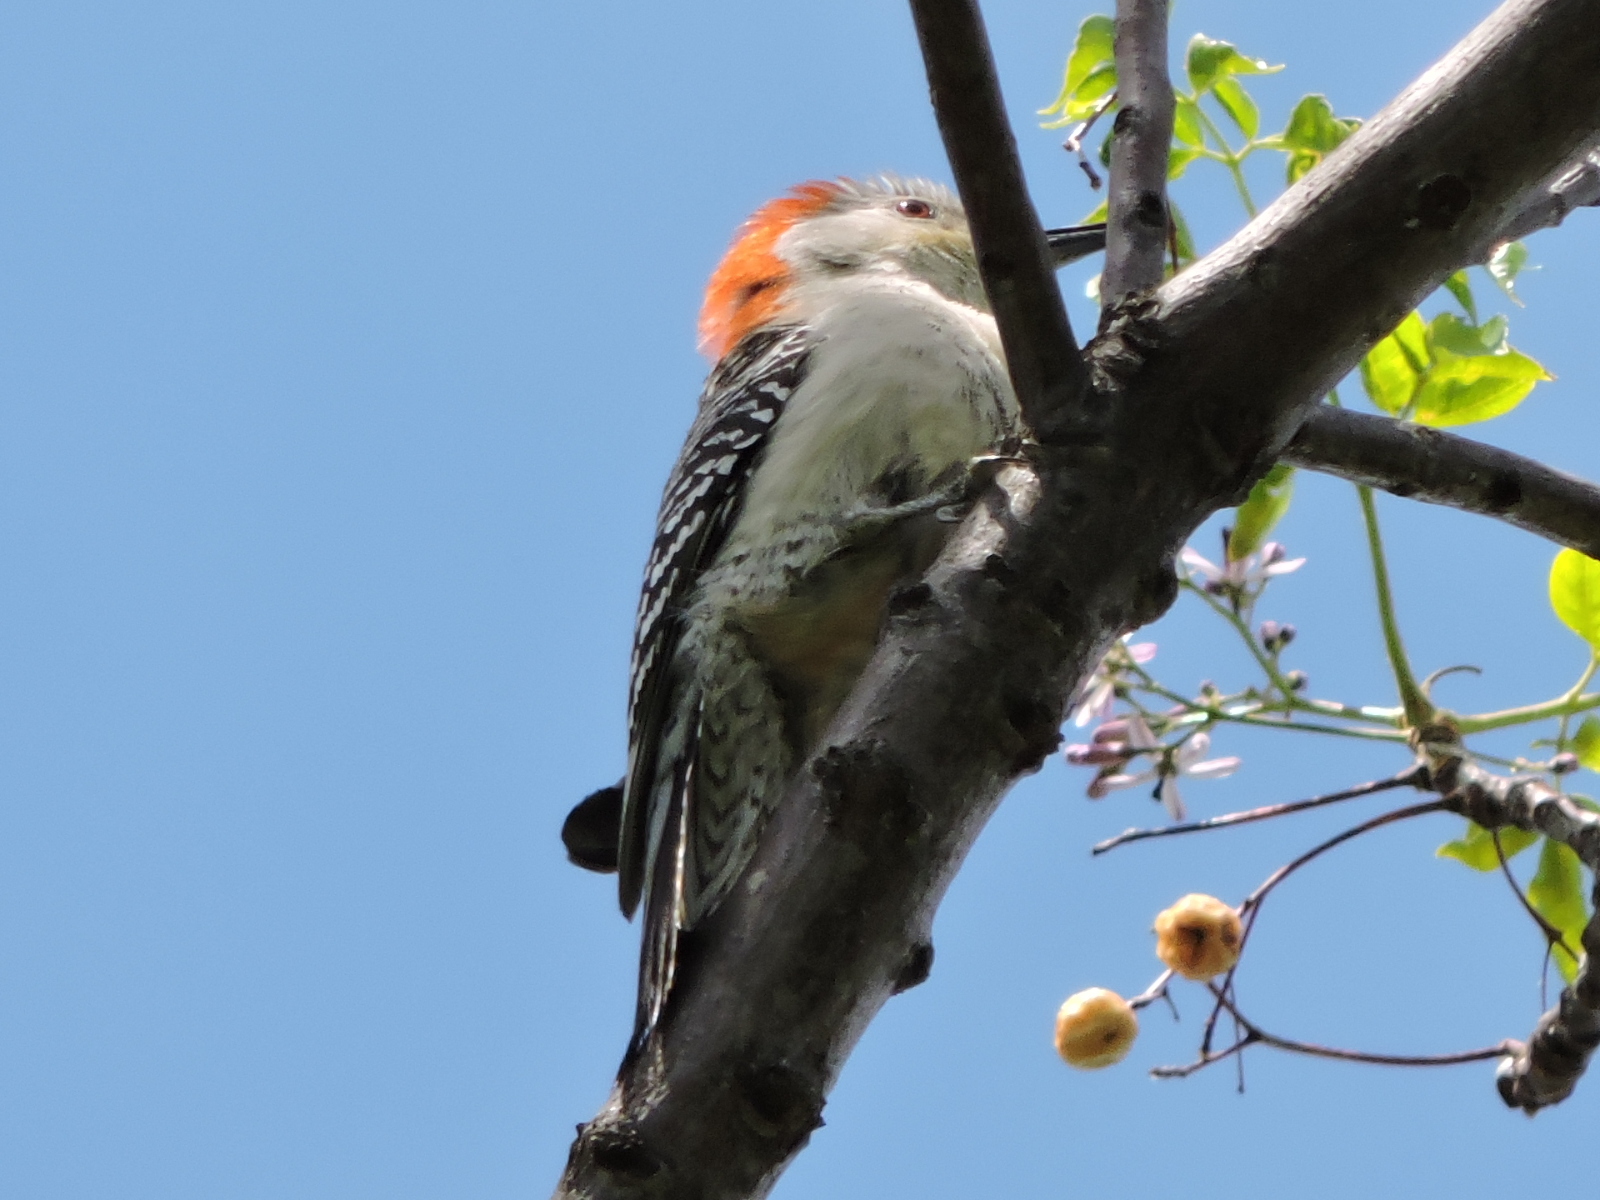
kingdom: Animalia
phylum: Chordata
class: Aves
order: Piciformes
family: Picidae
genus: Melanerpes
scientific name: Melanerpes carolinus
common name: Red-bellied woodpecker
